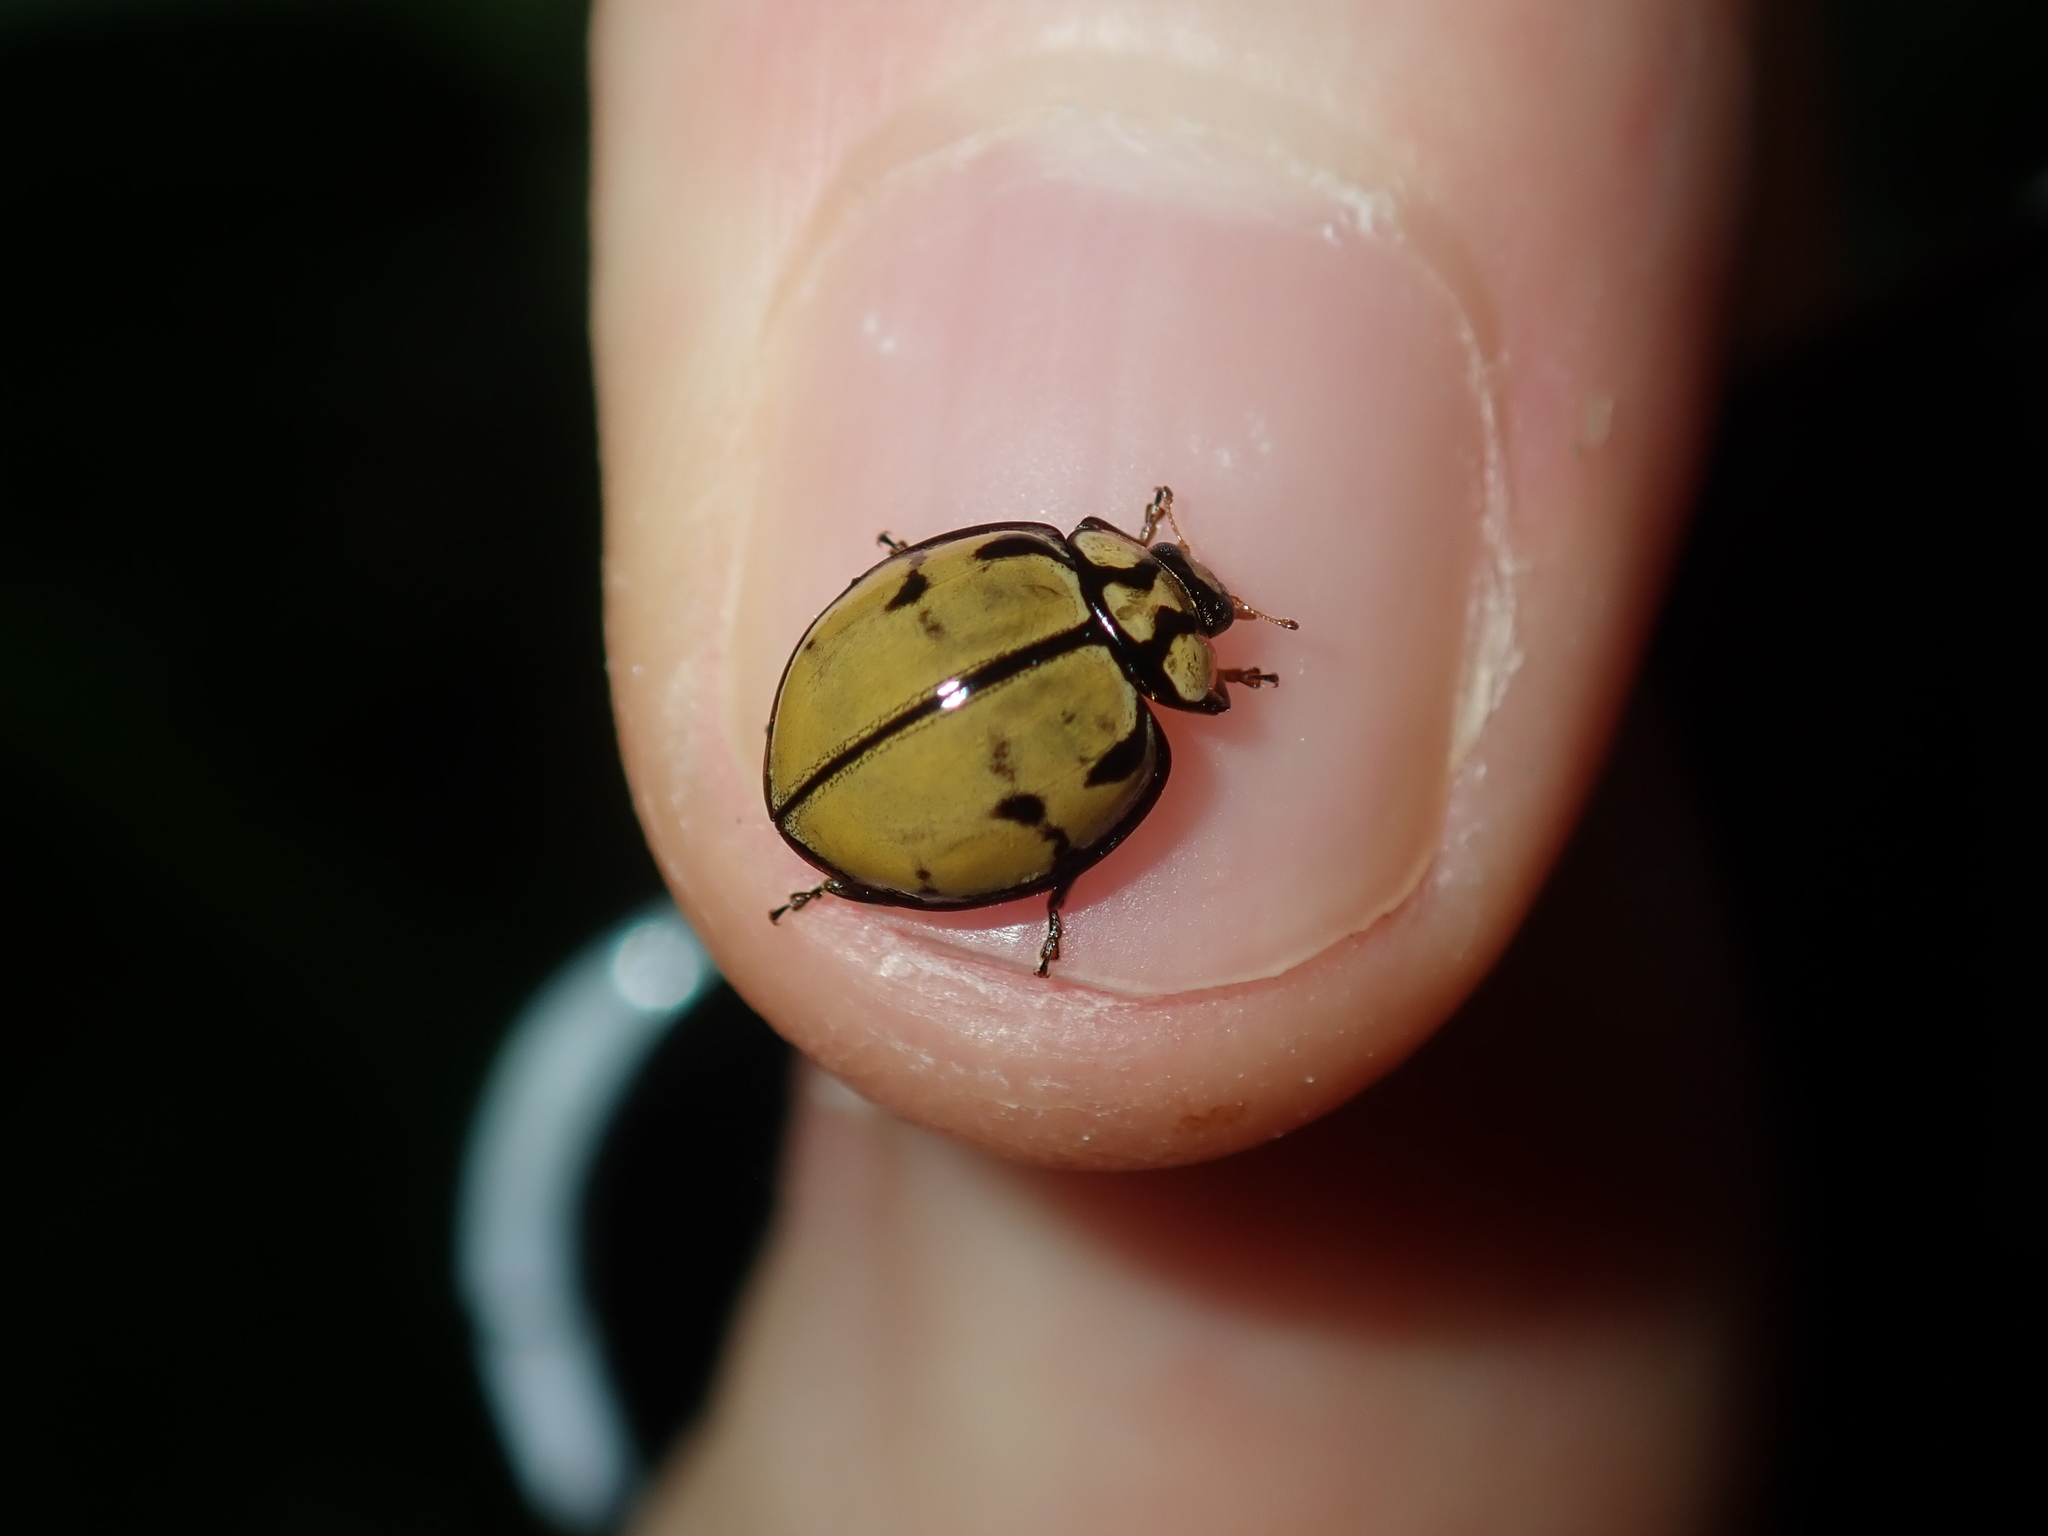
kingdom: Animalia
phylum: Arthropoda
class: Insecta
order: Coleoptera
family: Coccinellidae
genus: Harmonia
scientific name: Harmonia
